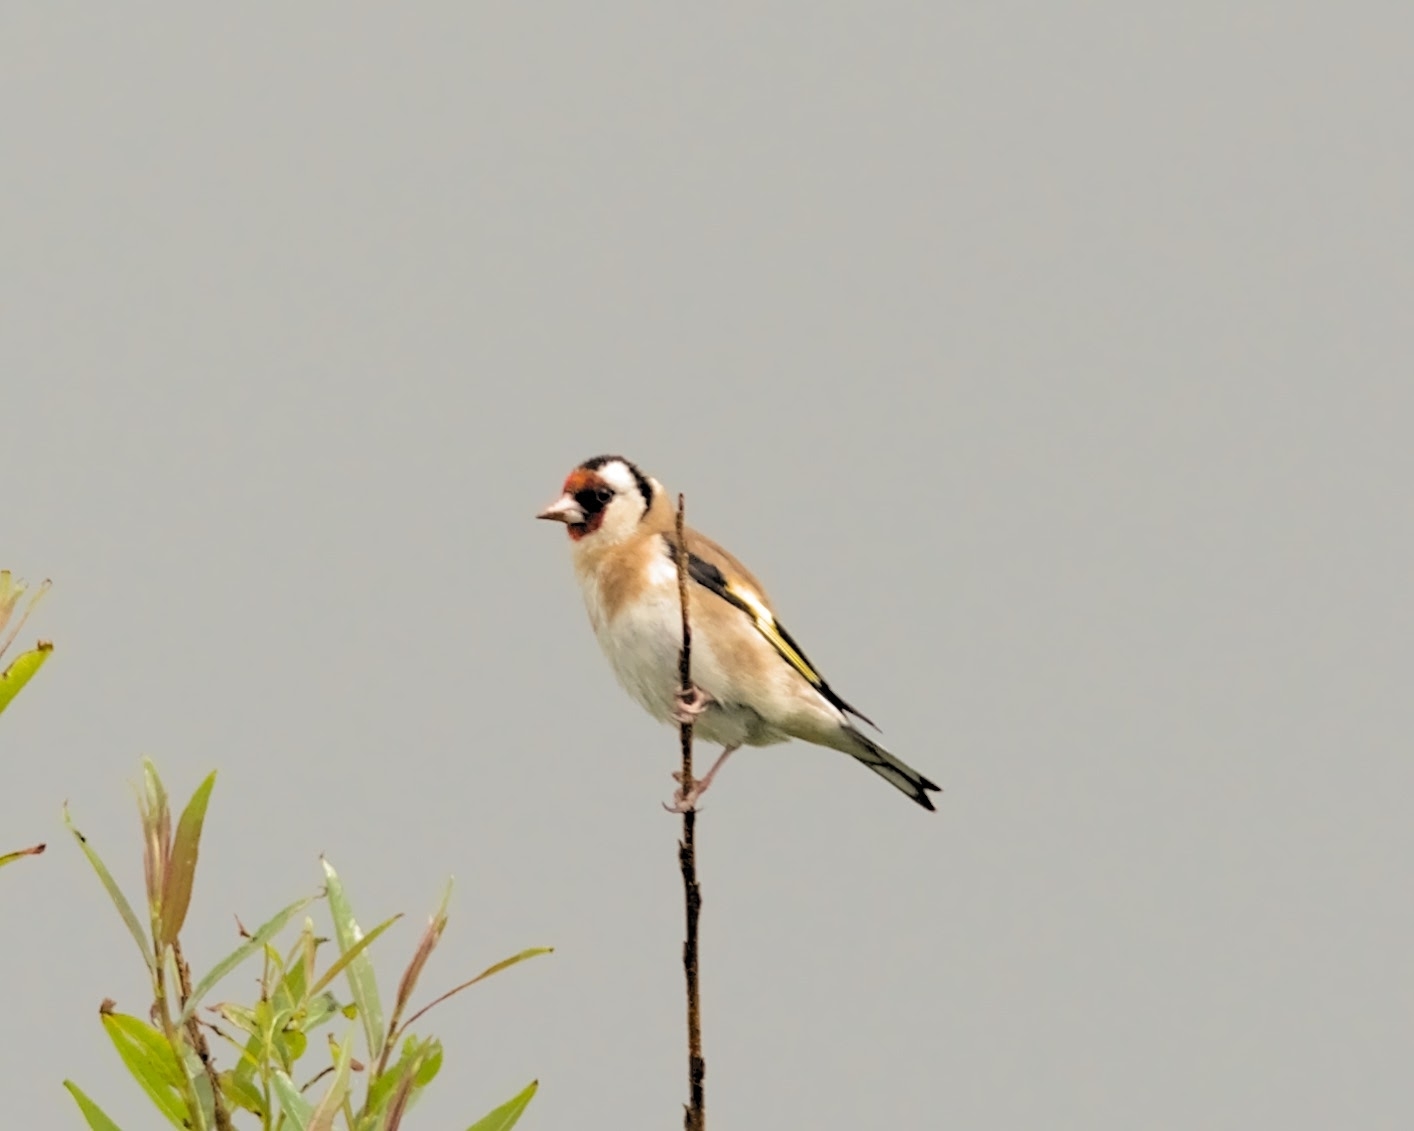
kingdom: Animalia
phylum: Chordata
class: Aves
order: Passeriformes
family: Fringillidae
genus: Carduelis
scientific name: Carduelis carduelis
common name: European goldfinch
